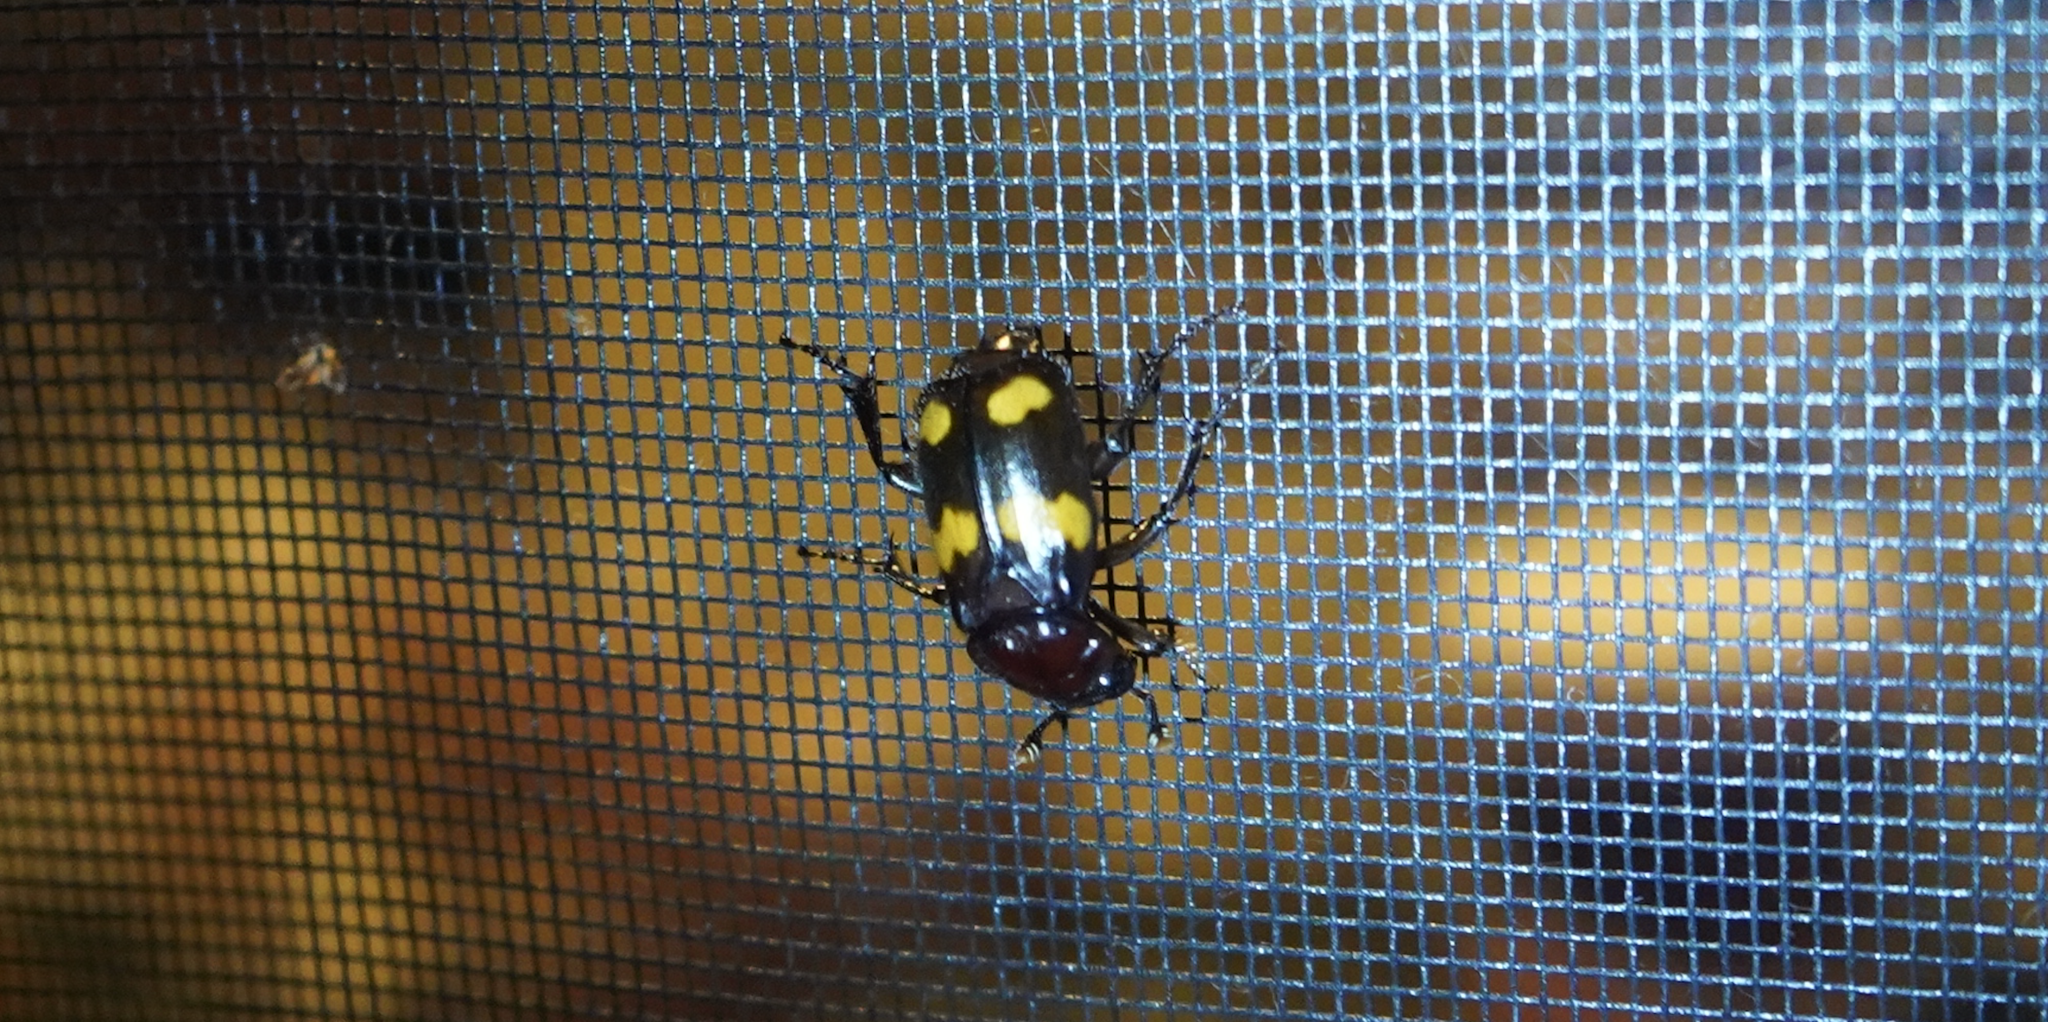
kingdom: Animalia
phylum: Arthropoda
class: Insecta
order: Coleoptera
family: Staphylinidae
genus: Nicrophorus
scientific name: Nicrophorus orbicollis
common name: Roundneck sexton beetle
